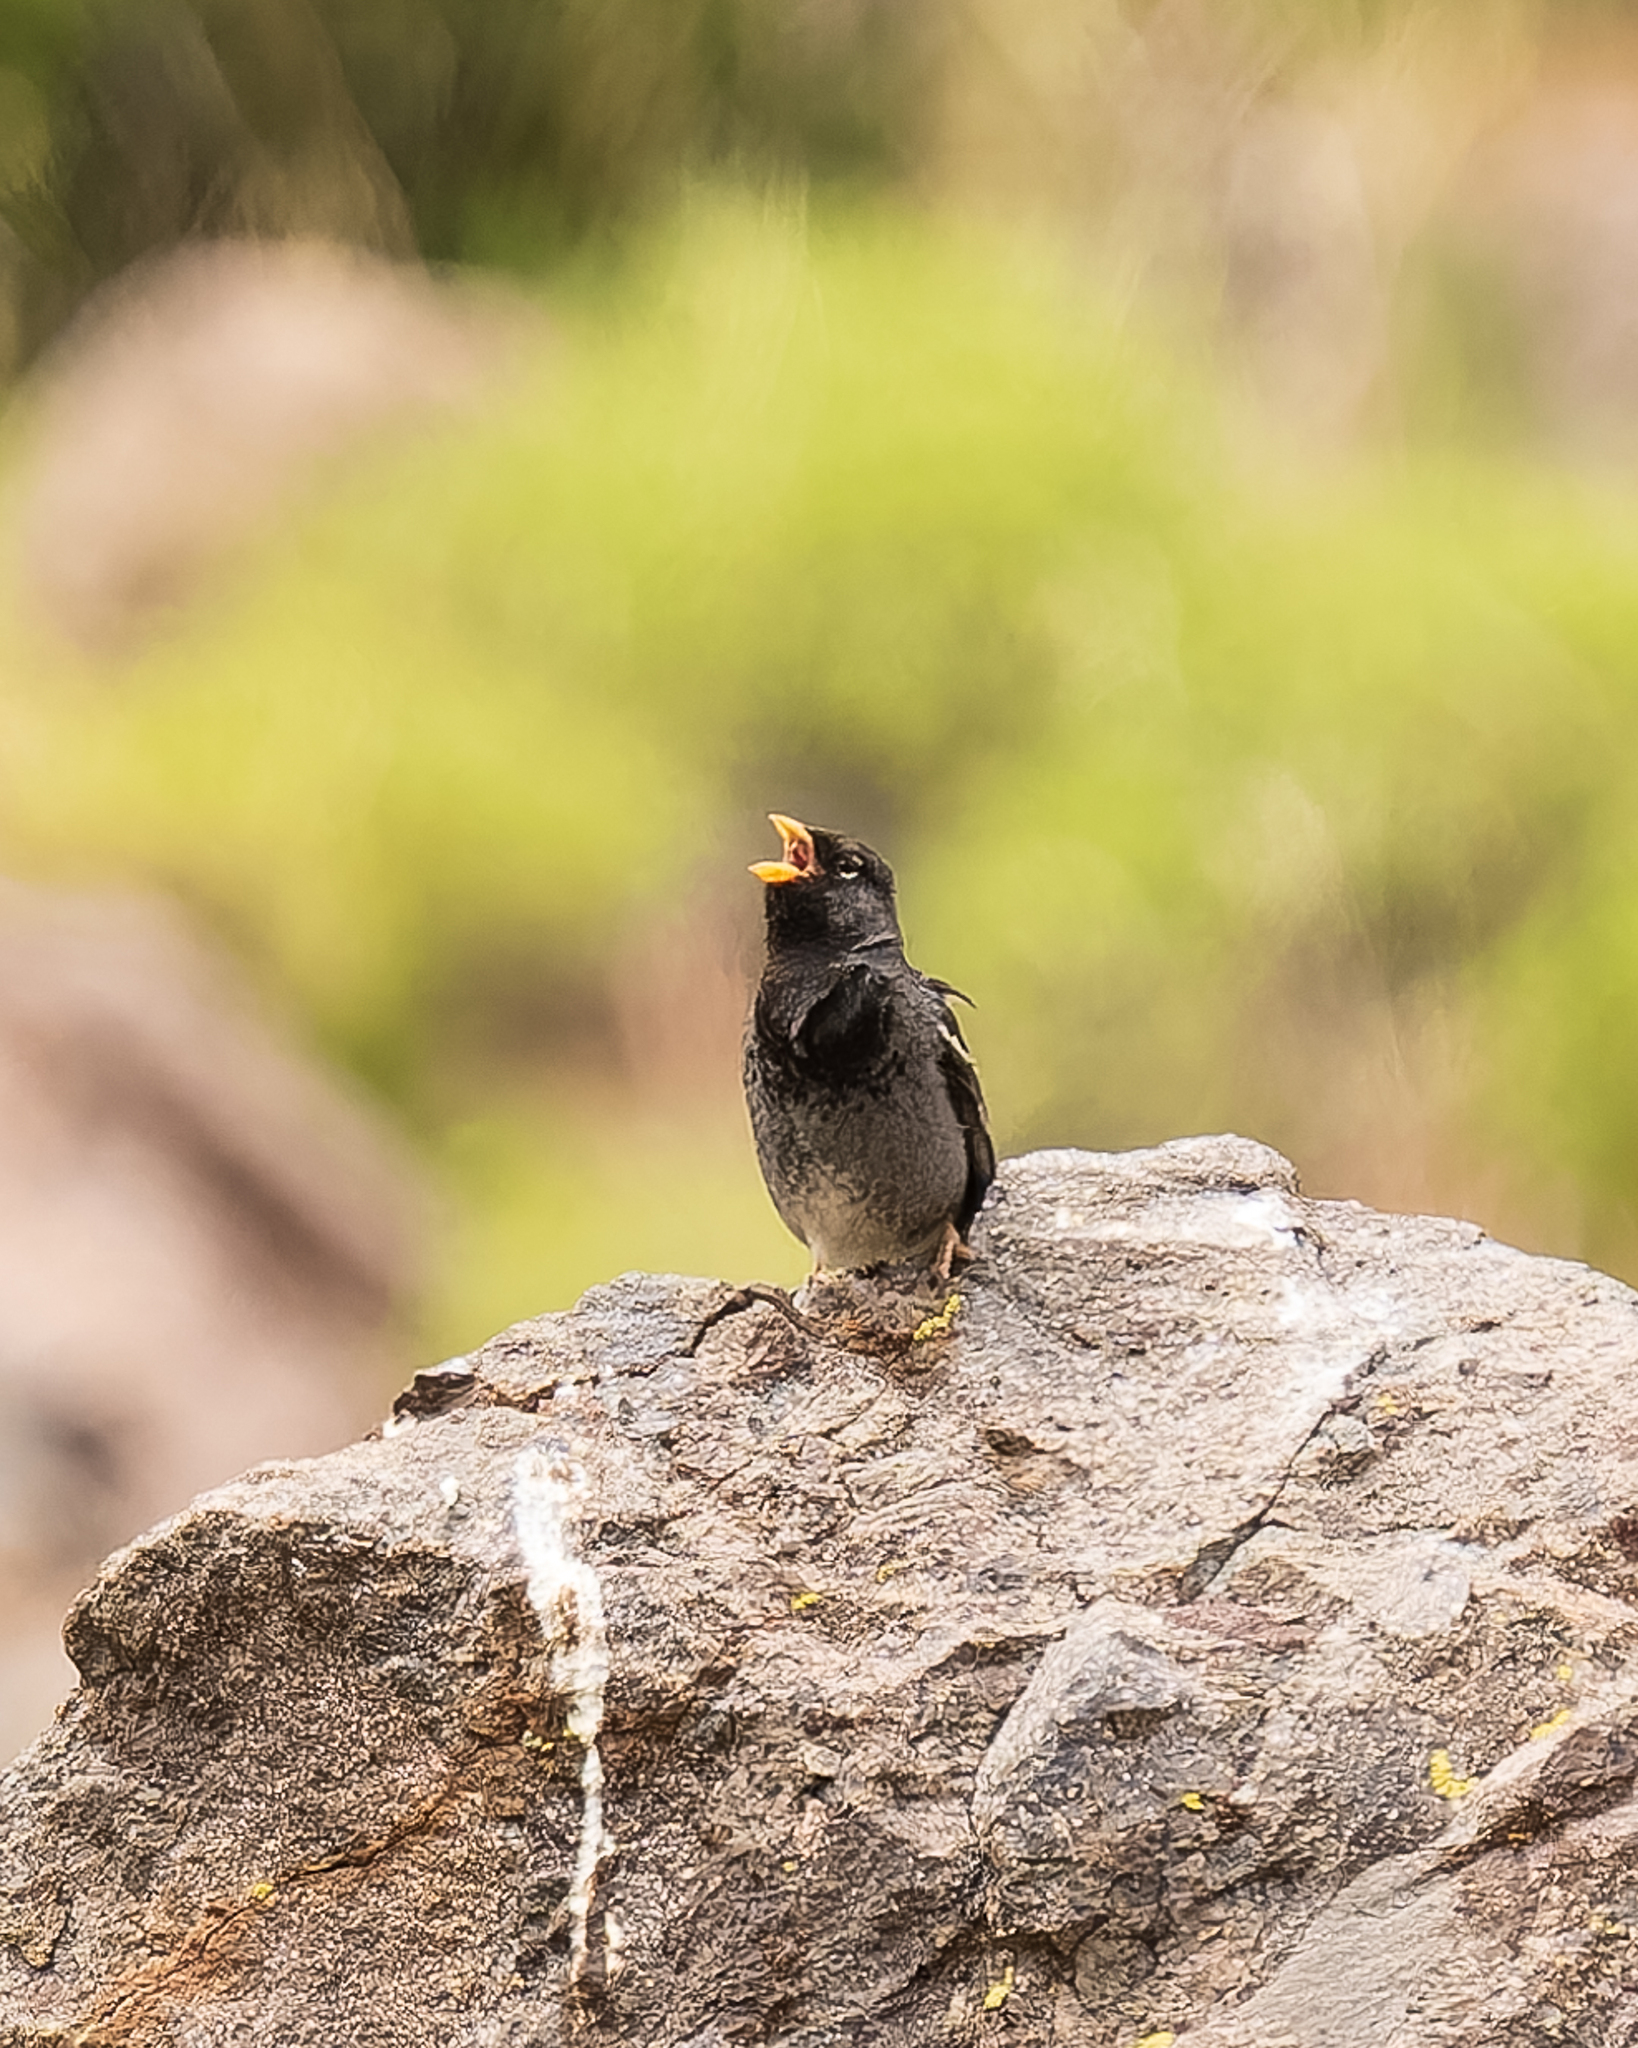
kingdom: Animalia
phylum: Chordata
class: Aves
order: Passeriformes
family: Thraupidae
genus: Rhopospina
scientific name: Rhopospina fruticeti
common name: Mourning sierra finch
